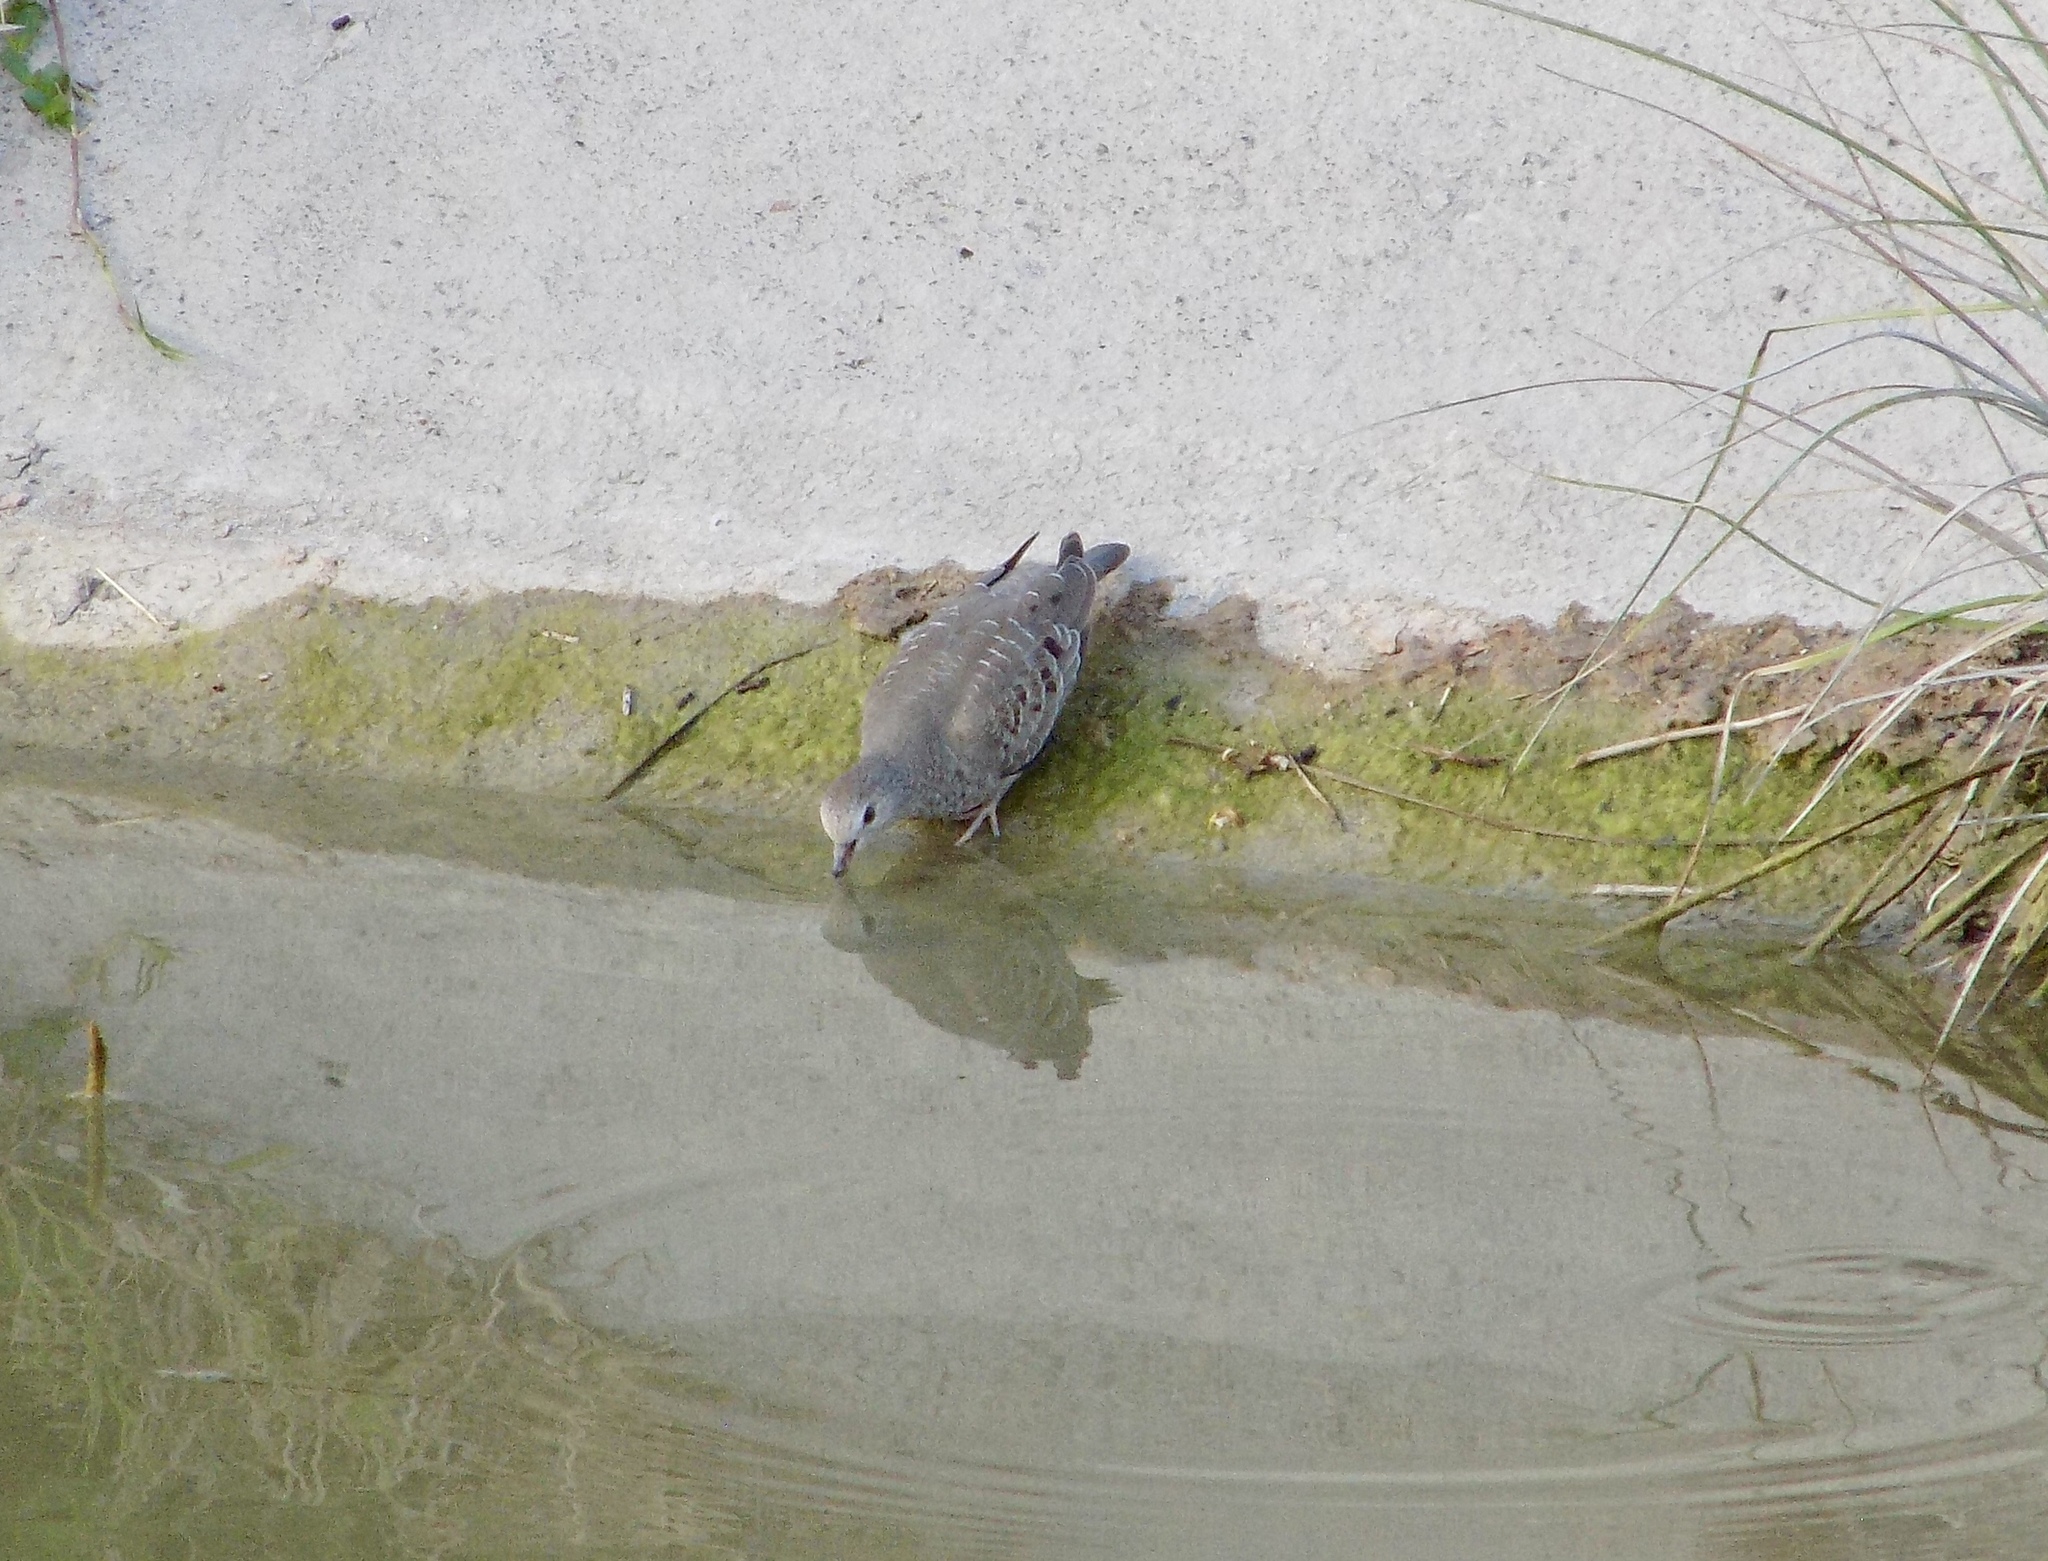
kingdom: Animalia
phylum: Chordata
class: Aves
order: Columbiformes
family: Columbidae
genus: Columbina
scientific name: Columbina passerina
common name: Common ground-dove
